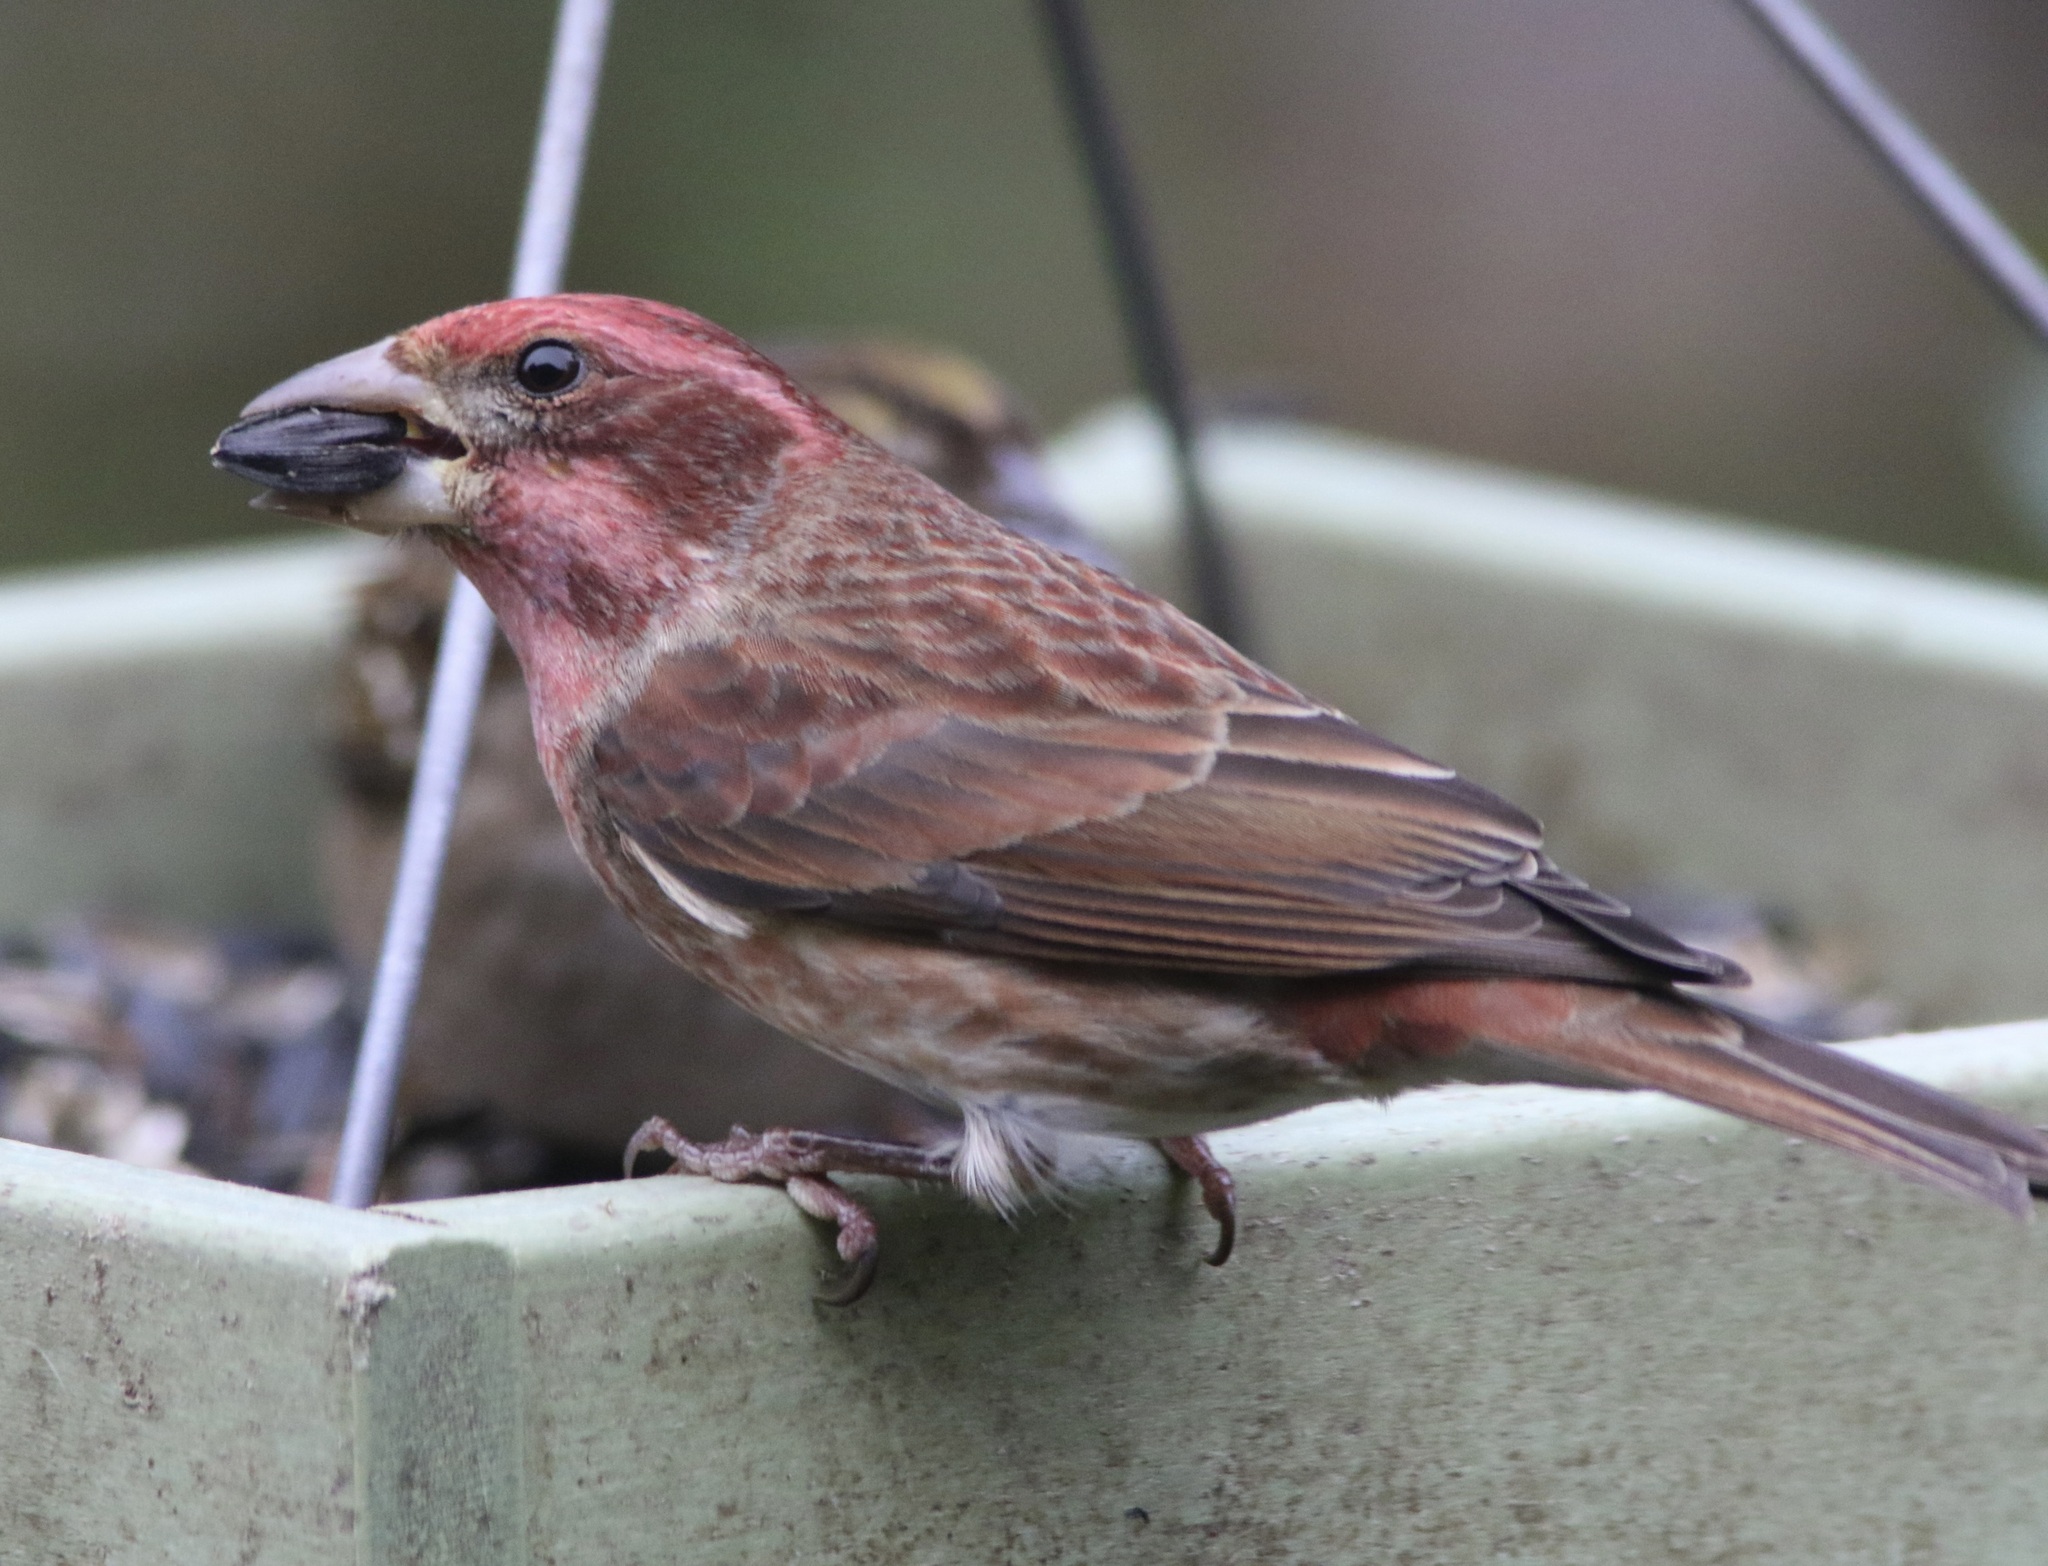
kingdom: Animalia
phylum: Chordata
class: Aves
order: Passeriformes
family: Fringillidae
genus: Haemorhous
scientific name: Haemorhous purpureus
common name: Purple finch
